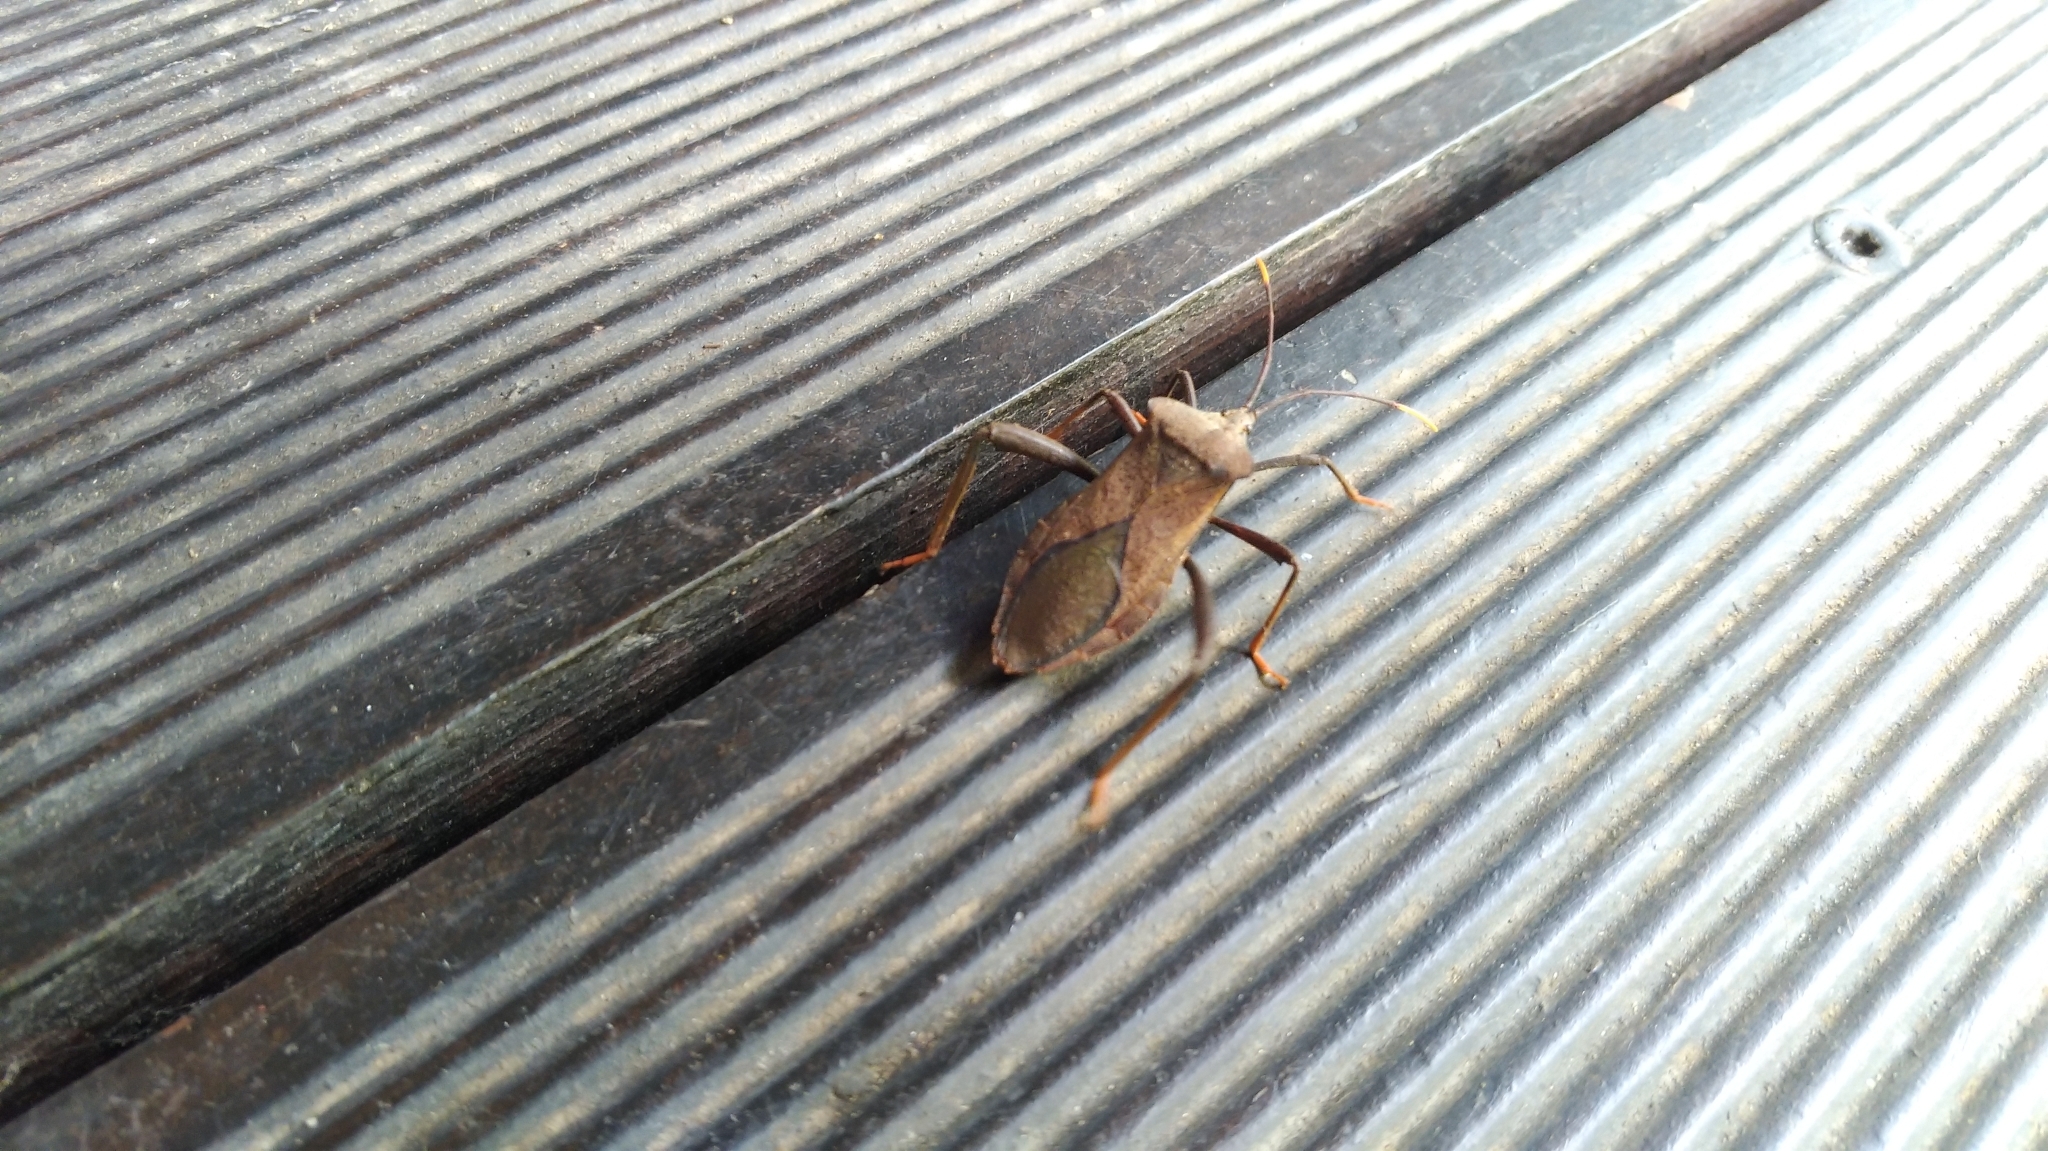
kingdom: Animalia
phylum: Arthropoda
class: Insecta
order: Hemiptera
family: Coreidae
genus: Mictis
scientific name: Mictis serina
